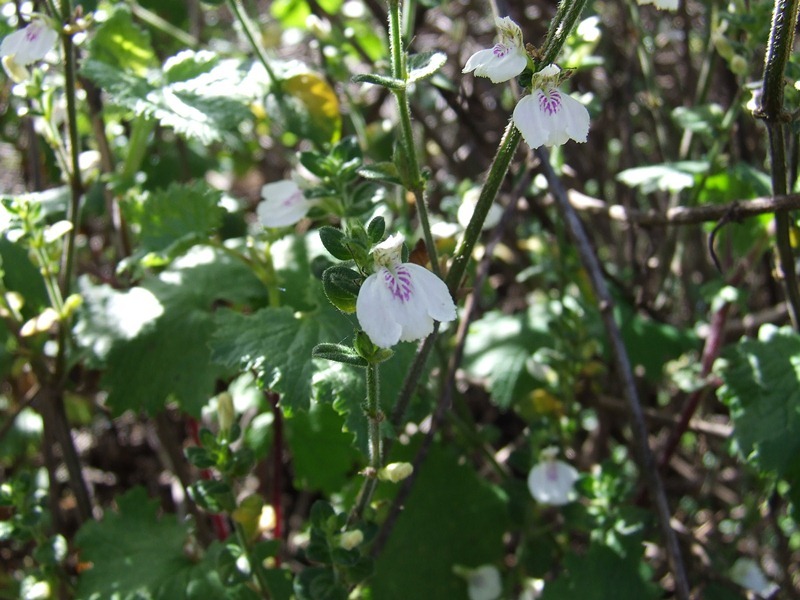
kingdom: Plantae
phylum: Tracheophyta
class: Magnoliopsida
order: Lamiales
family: Acanthaceae
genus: Justicia
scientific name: Justicia protracta
